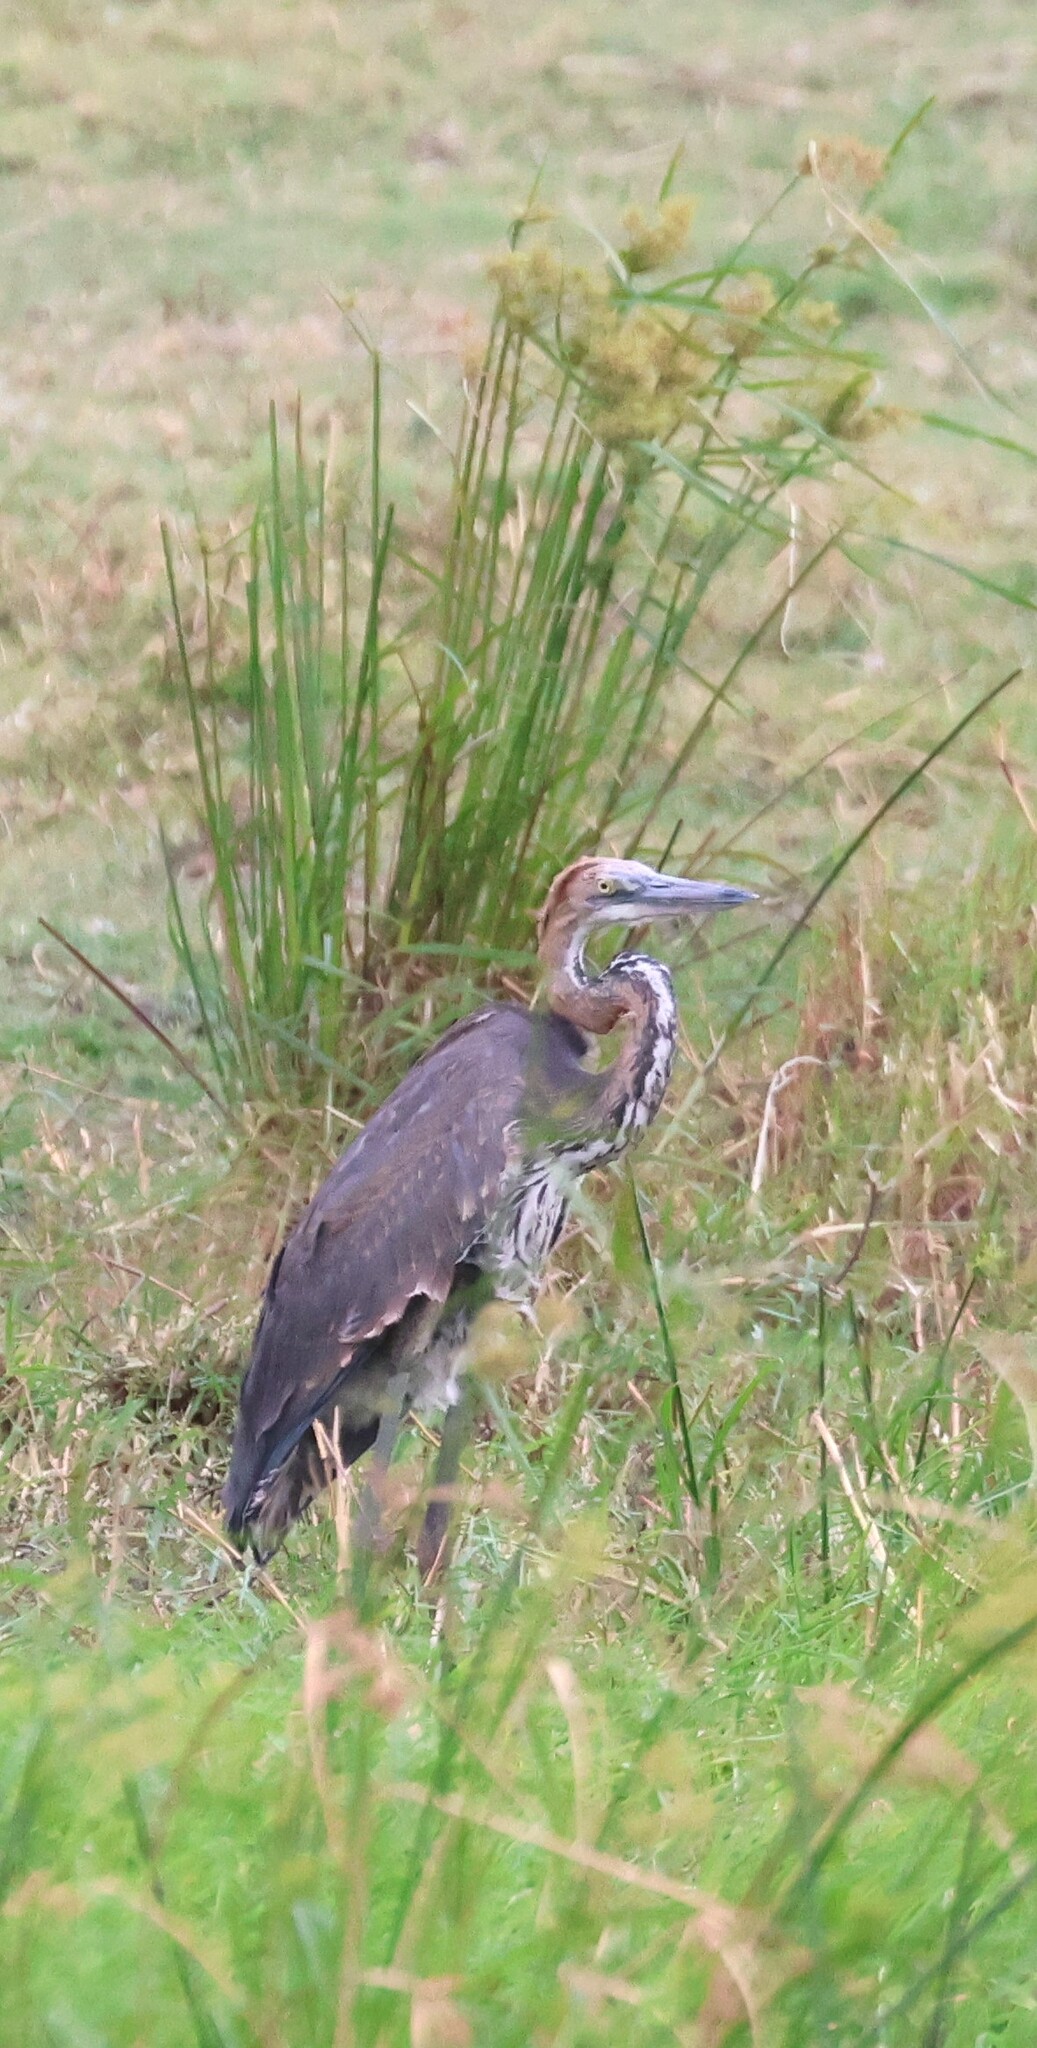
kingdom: Animalia
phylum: Chordata
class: Aves
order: Pelecaniformes
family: Ardeidae
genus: Ardea
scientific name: Ardea goliath
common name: Goliath heron
